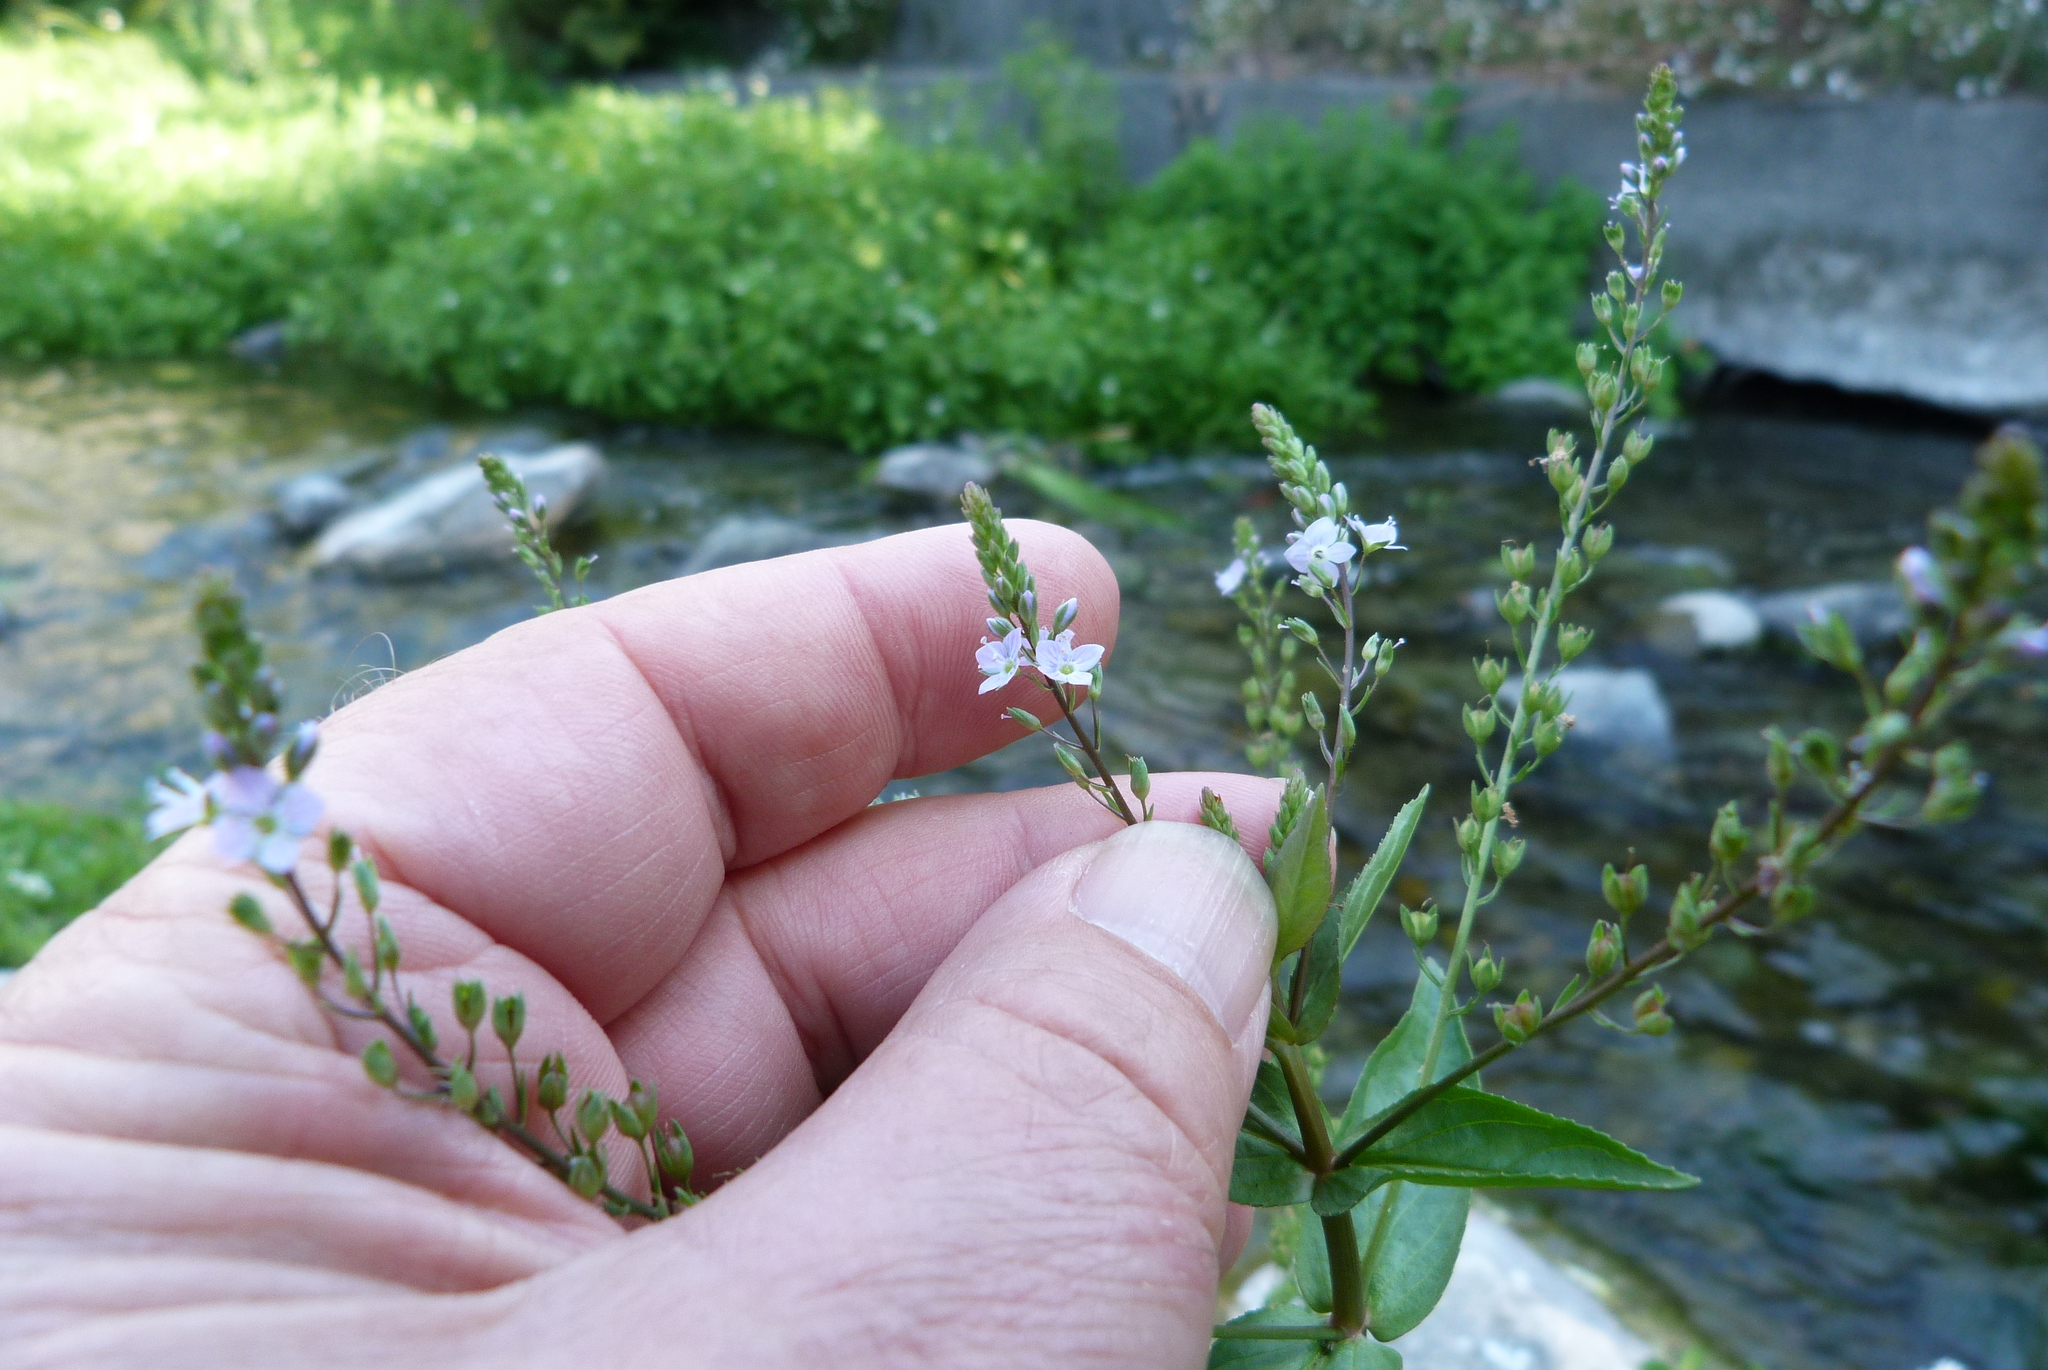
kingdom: Plantae
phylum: Tracheophyta
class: Magnoliopsida
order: Lamiales
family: Plantaginaceae
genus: Veronica
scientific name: Veronica anagallis-aquatica
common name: Water speedwell
